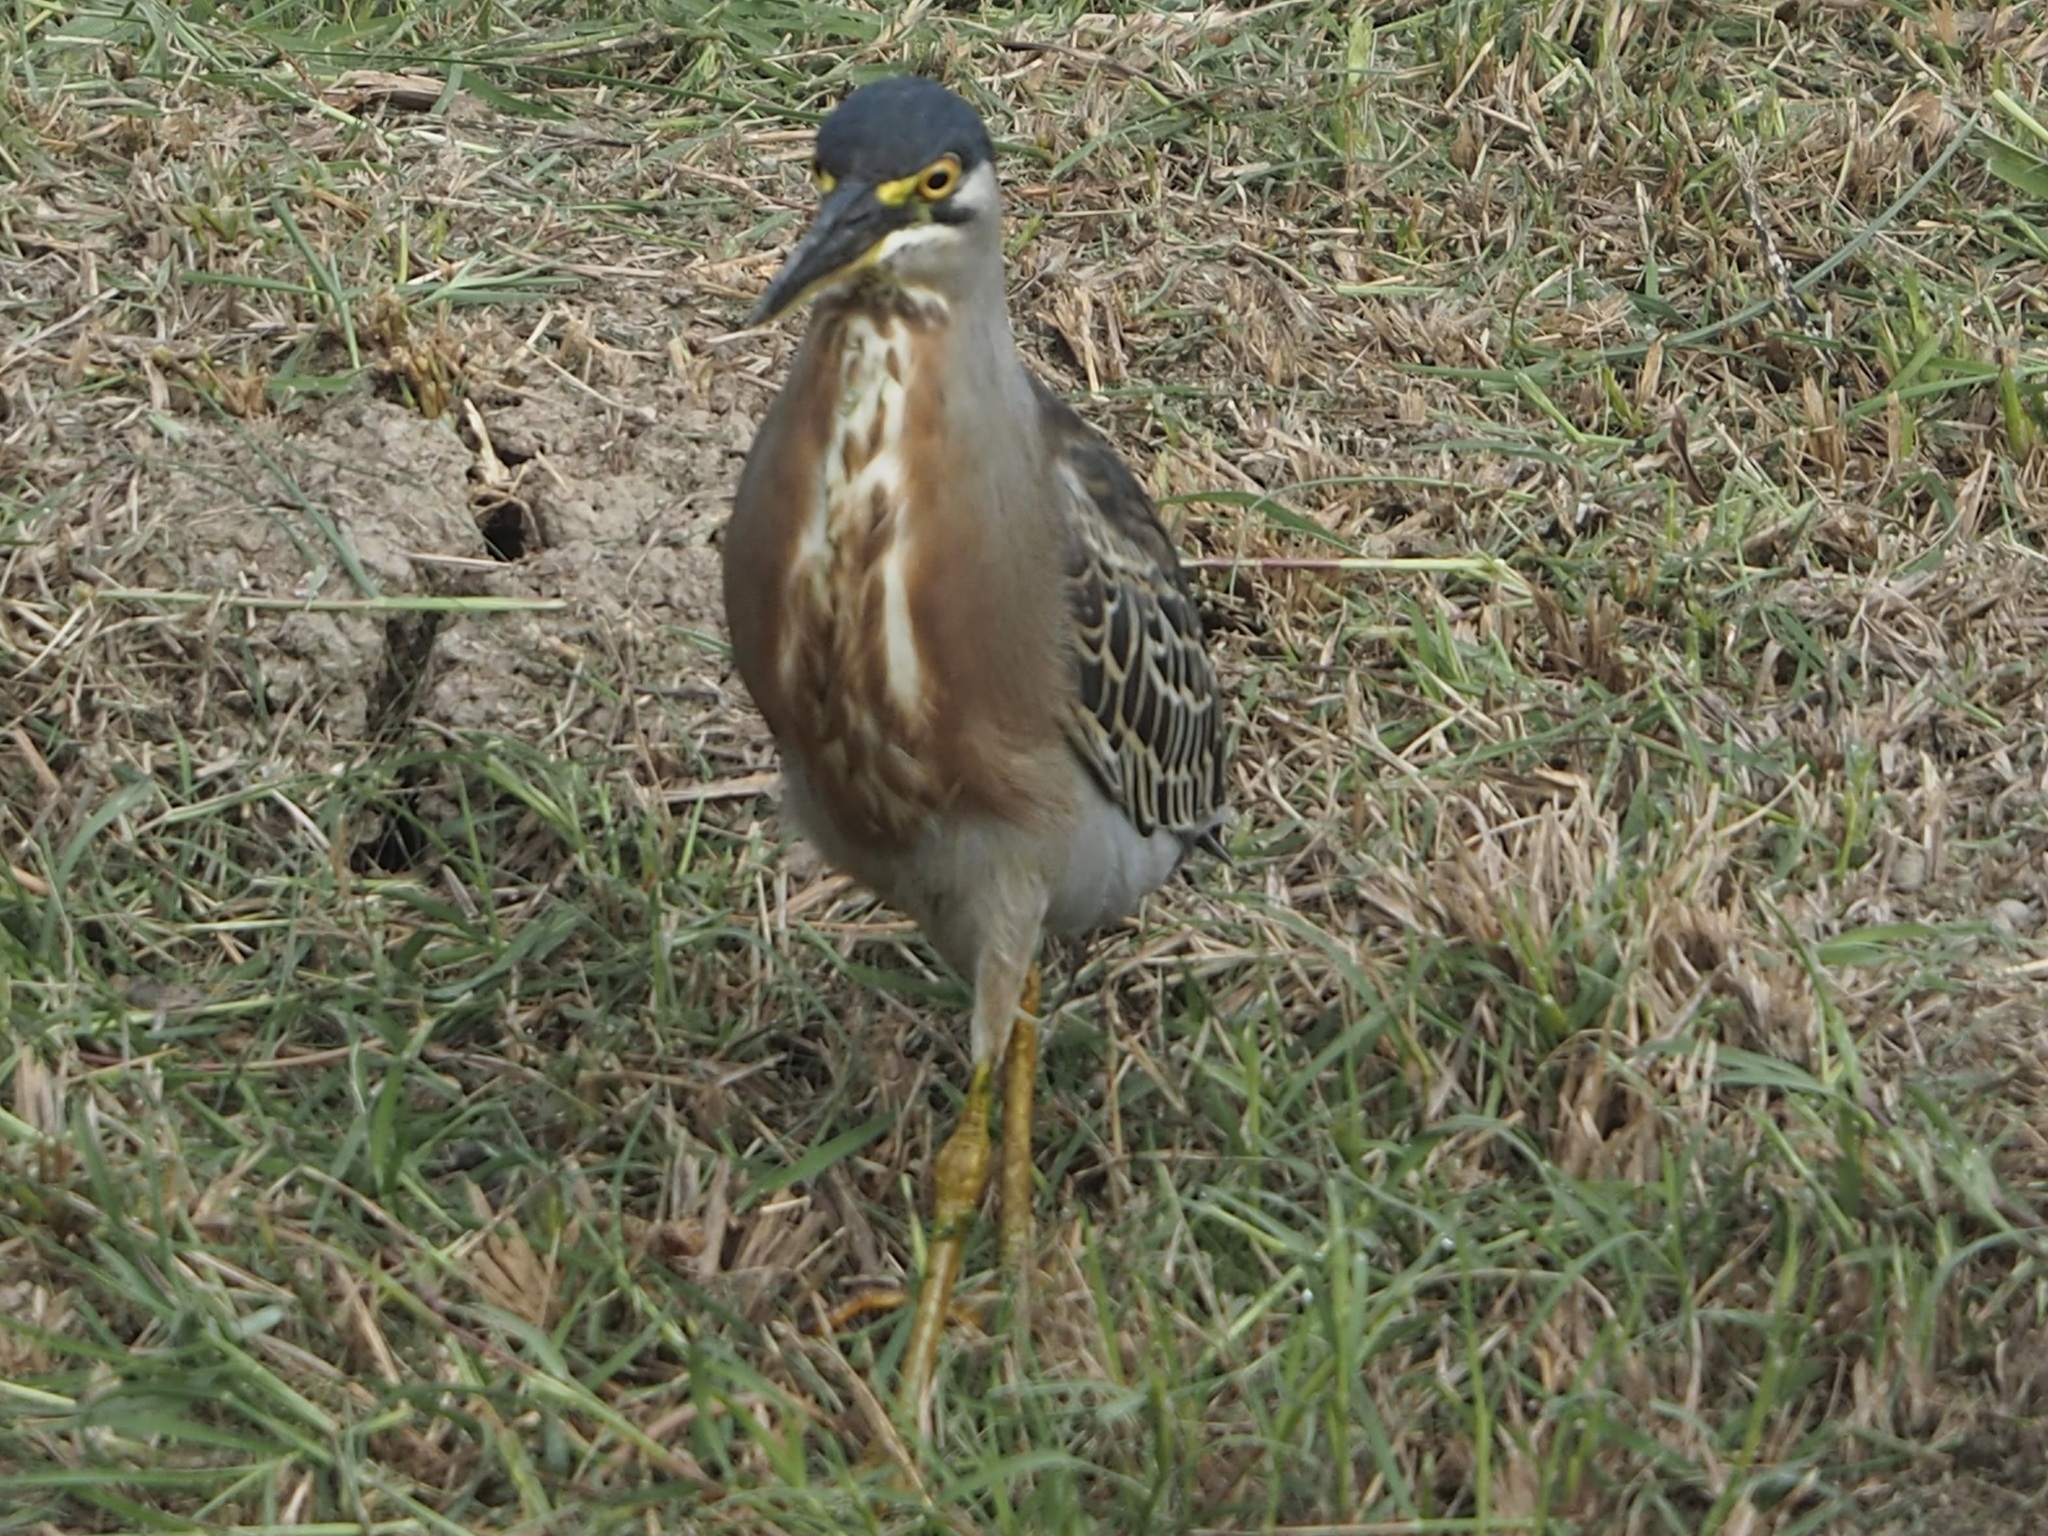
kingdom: Animalia
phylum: Chordata
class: Aves
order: Pelecaniformes
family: Ardeidae
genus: Butorides
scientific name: Butorides striata
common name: Striated heron
